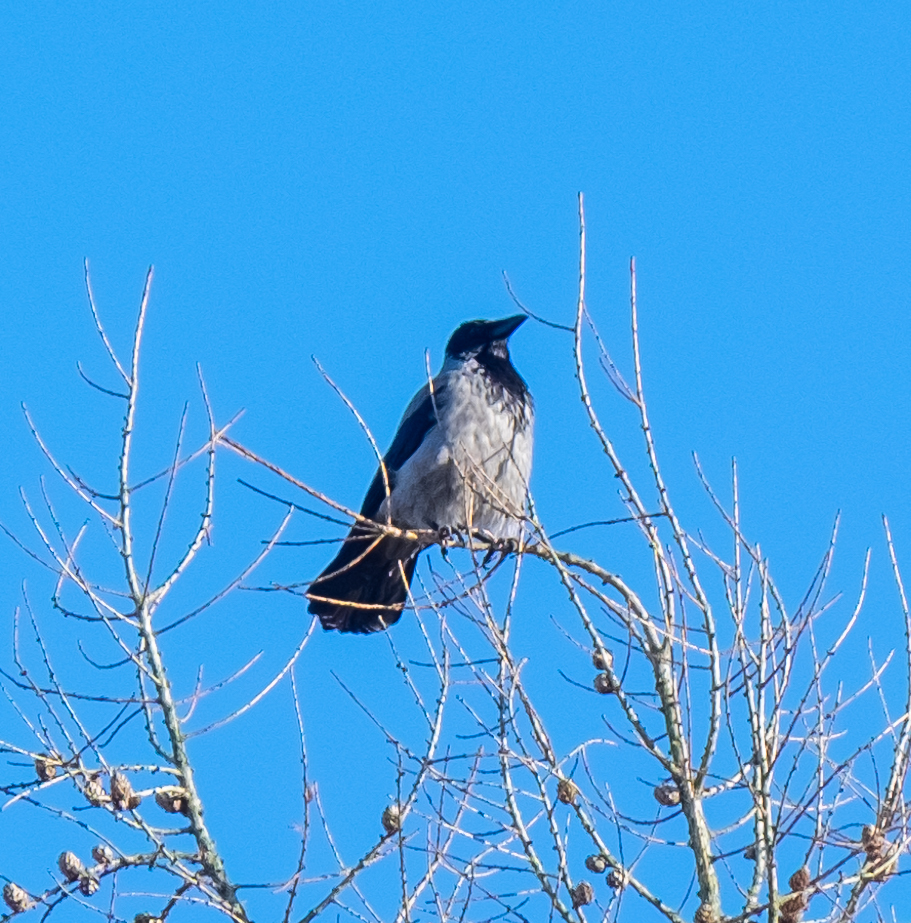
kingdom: Animalia
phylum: Chordata
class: Aves
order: Passeriformes
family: Corvidae
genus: Corvus
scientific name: Corvus cornix
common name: Hooded crow
